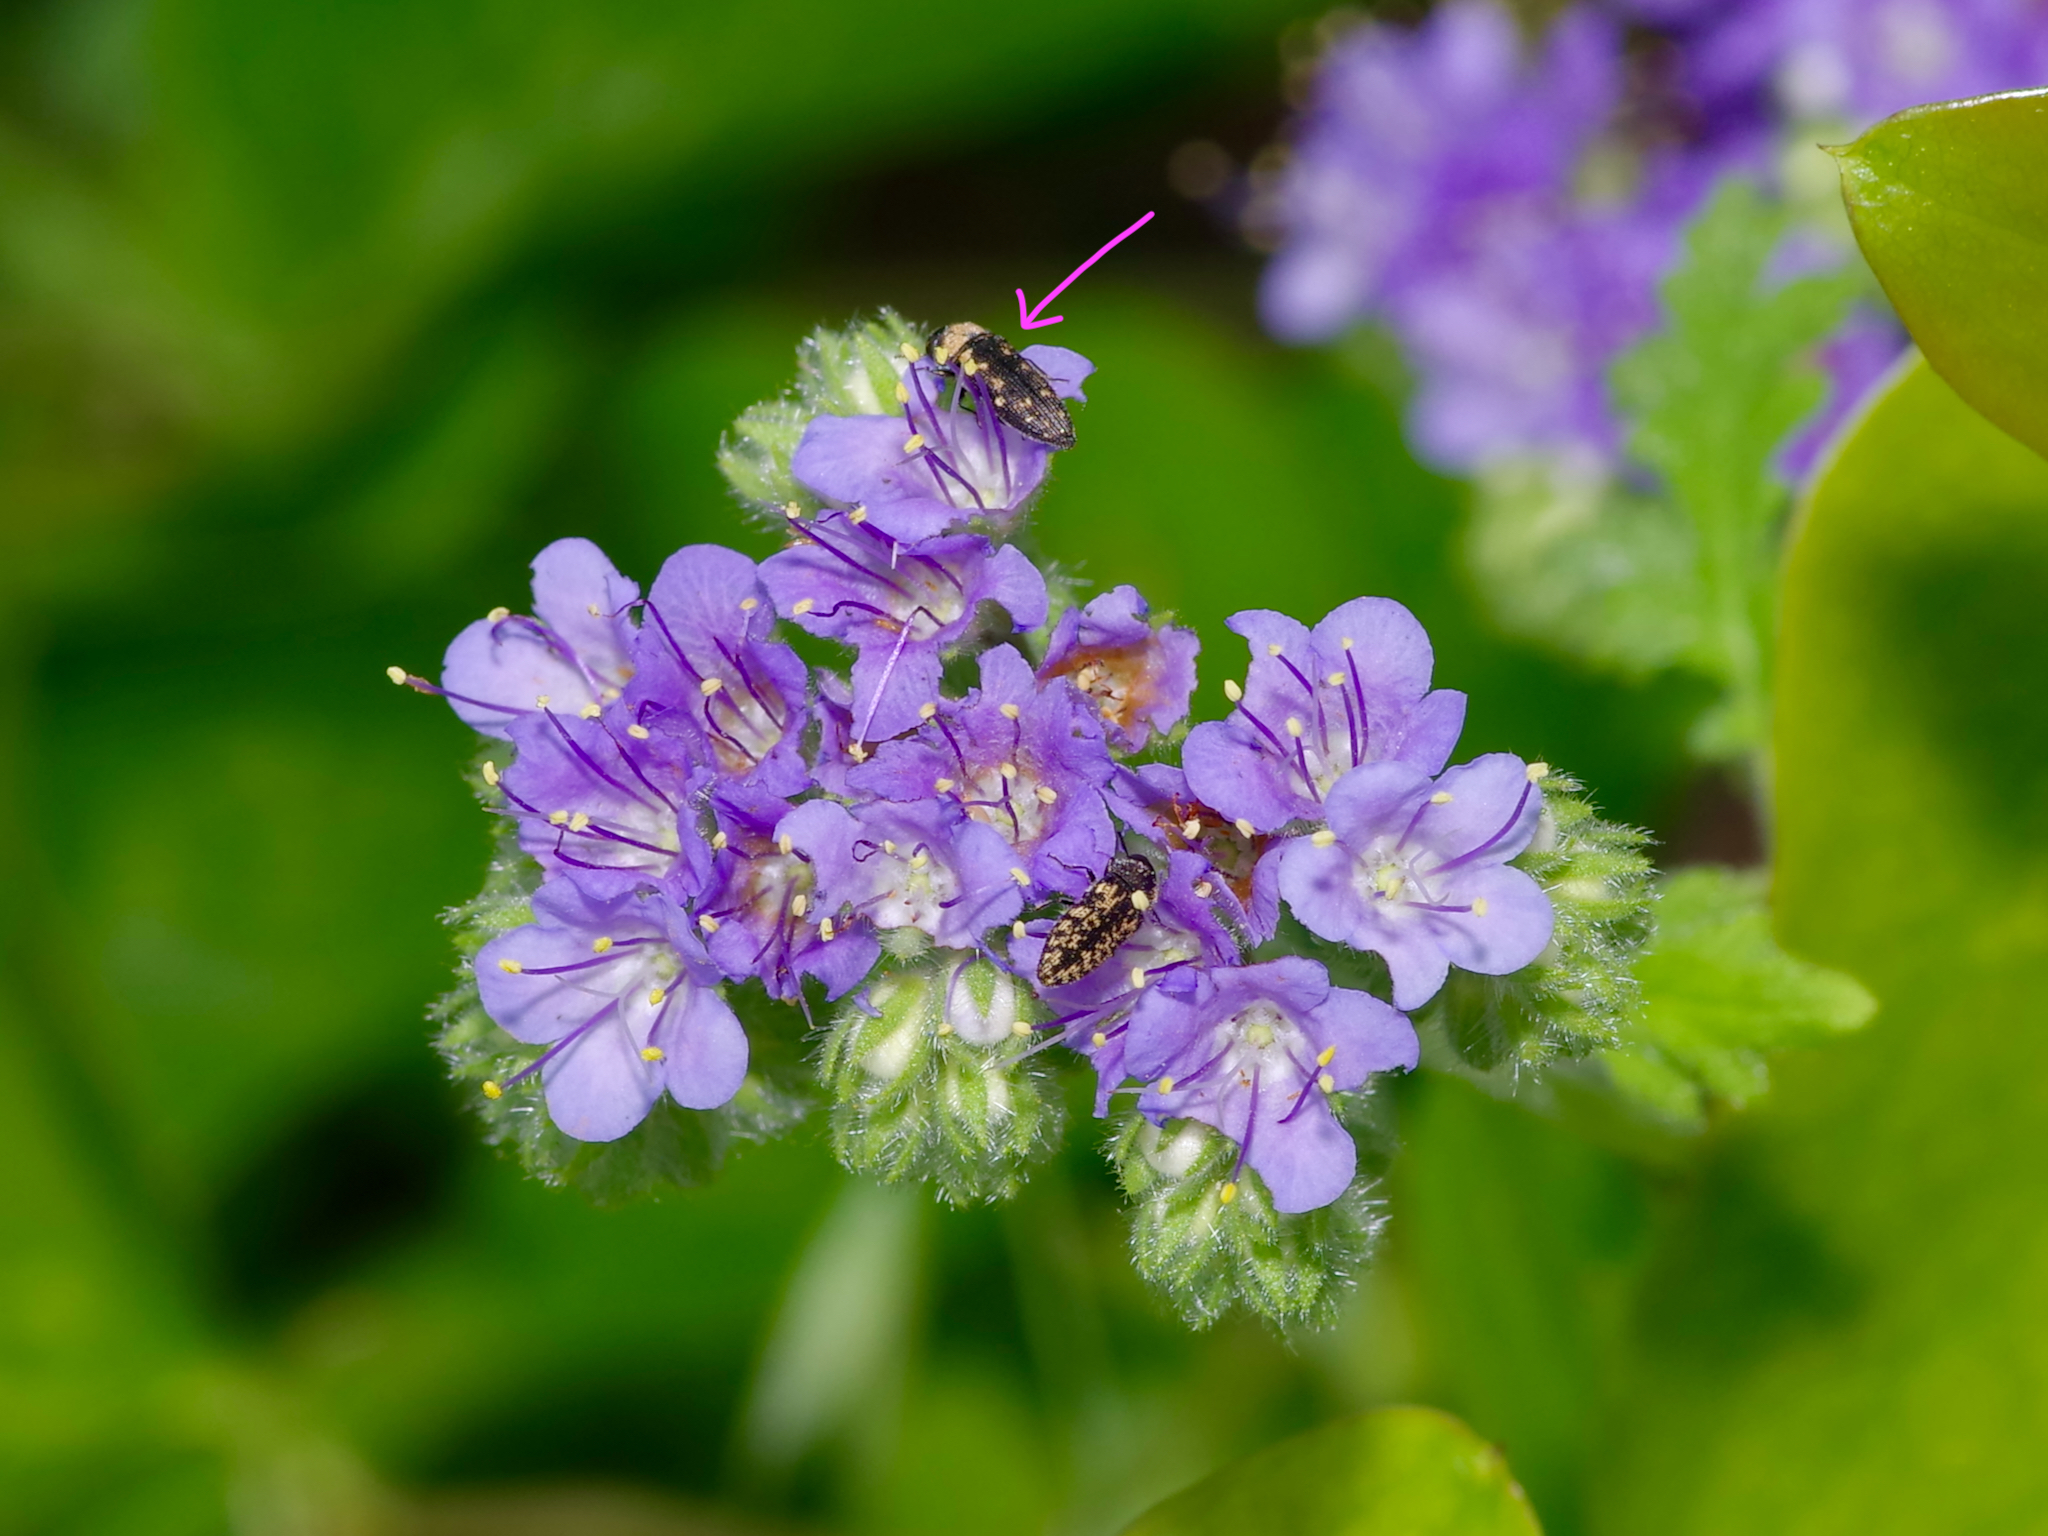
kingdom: Animalia
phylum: Arthropoda
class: Insecta
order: Coleoptera
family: Buprestidae
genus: Acmaeodera
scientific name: Acmaeodera tubulus
